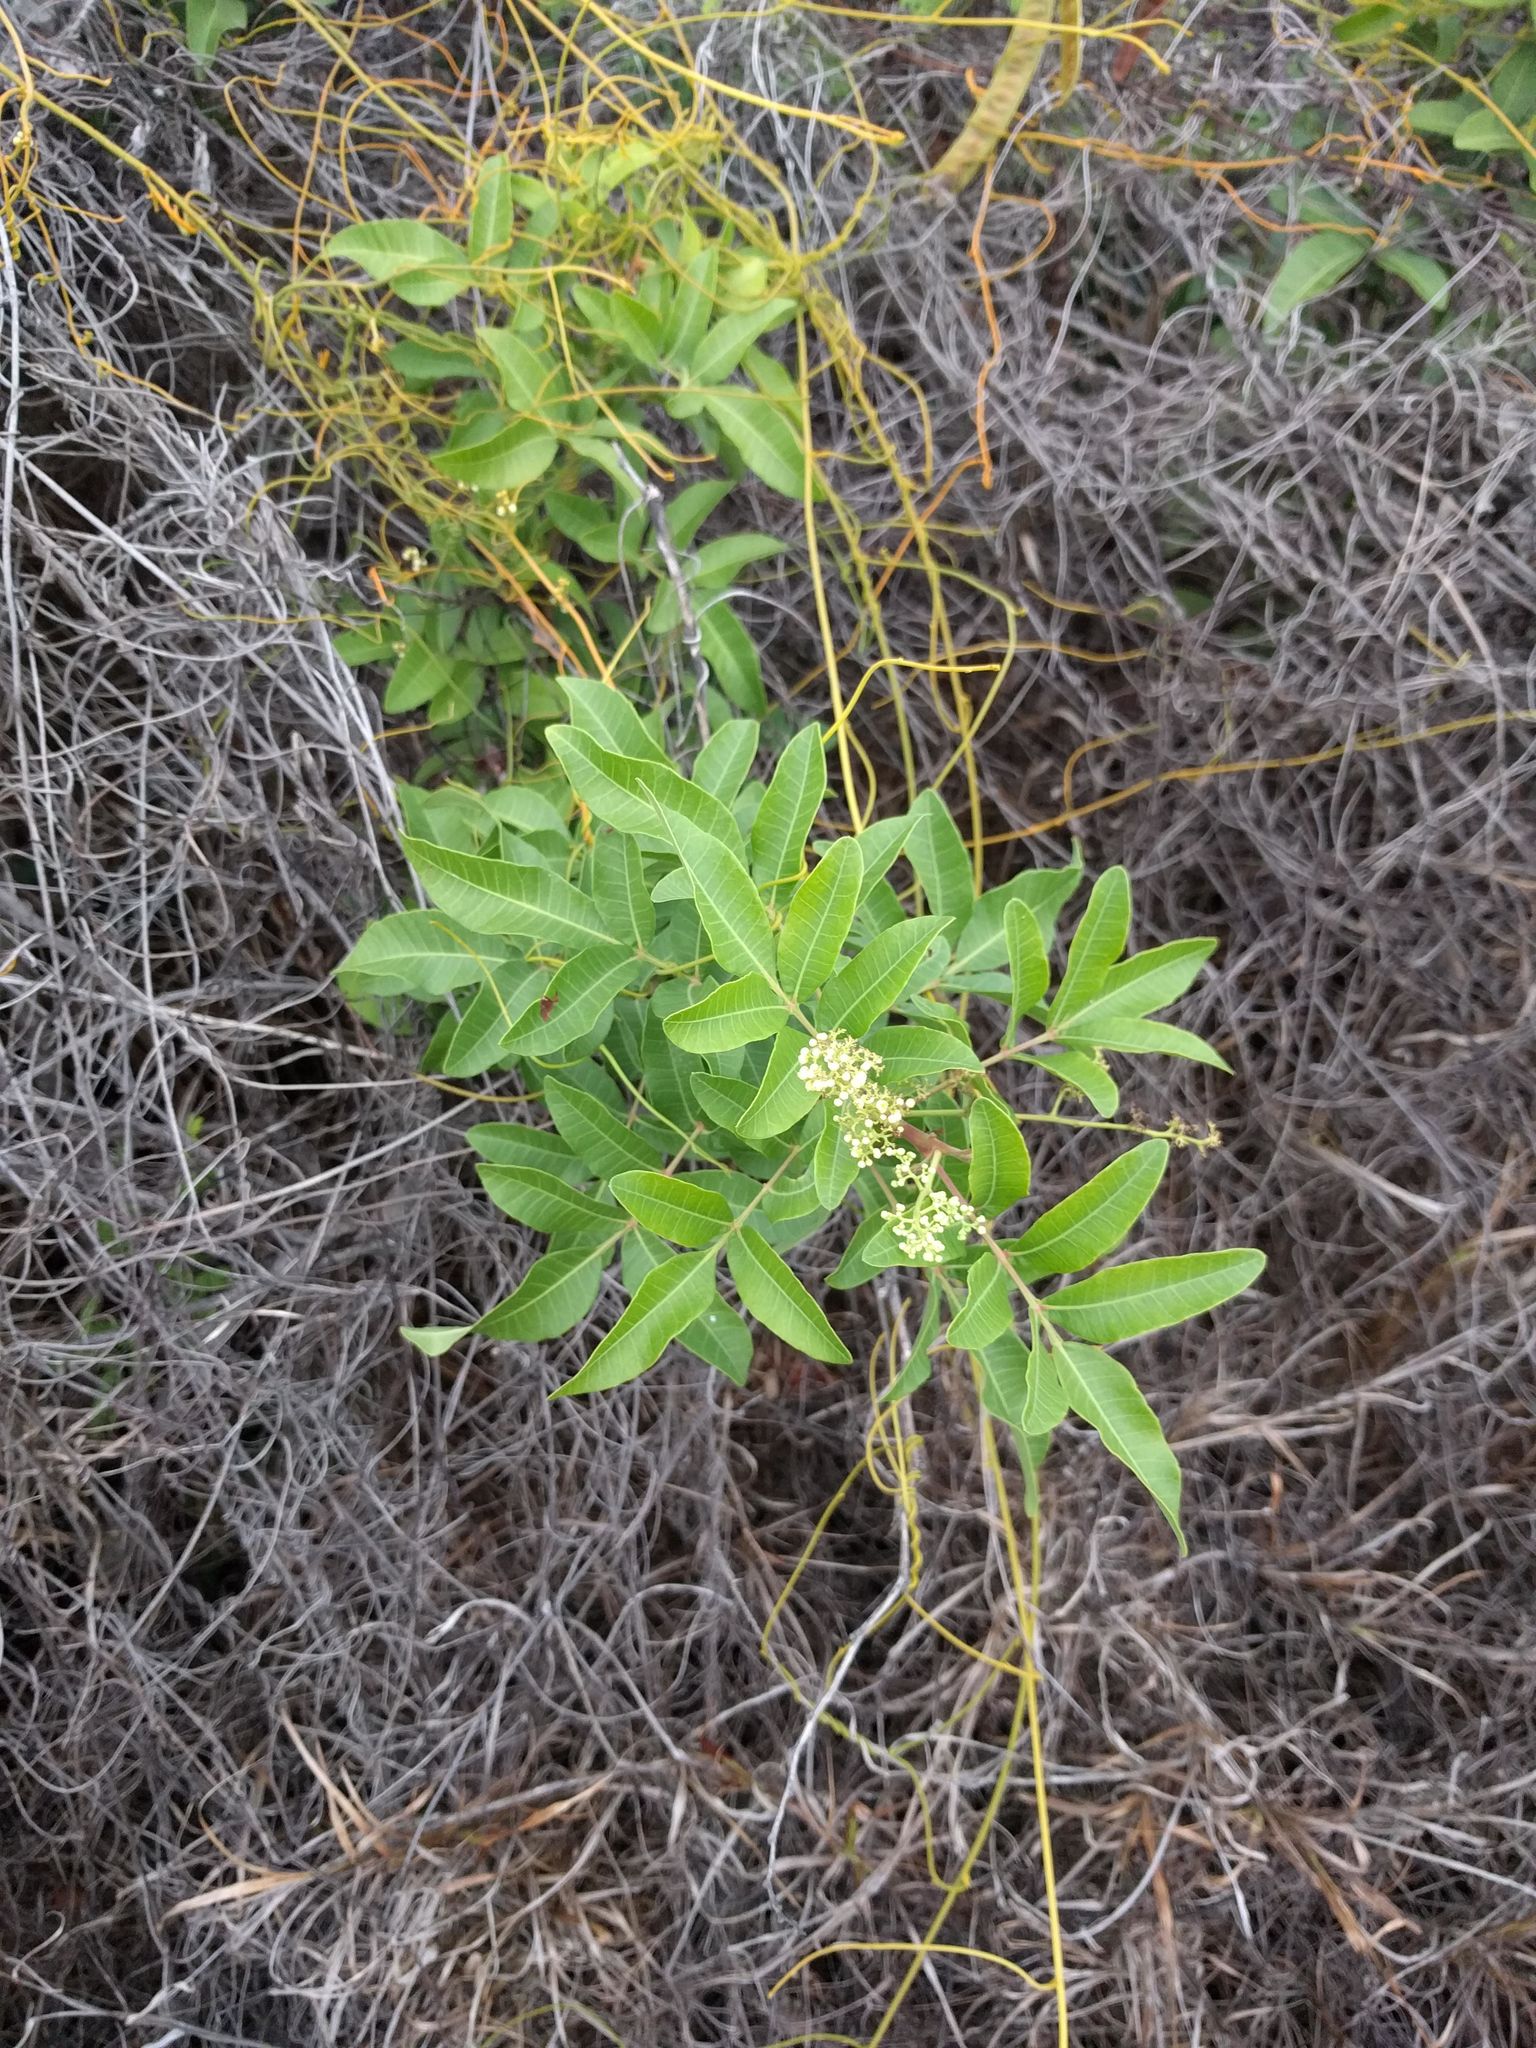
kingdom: Plantae
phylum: Tracheophyta
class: Magnoliopsida
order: Sapindales
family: Anacardiaceae
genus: Schinus
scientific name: Schinus terebinthifolia
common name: Brazilian peppertree
